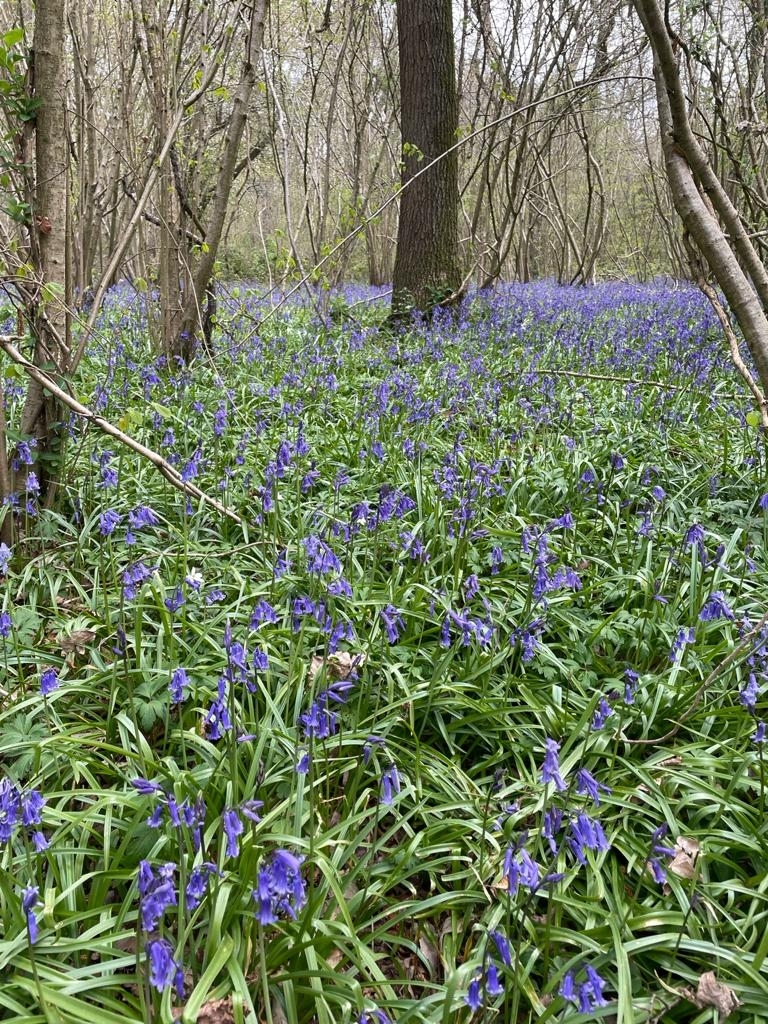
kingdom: Plantae
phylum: Tracheophyta
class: Liliopsida
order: Asparagales
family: Asparagaceae
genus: Hyacinthoides
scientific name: Hyacinthoides non-scripta
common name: Bluebell
